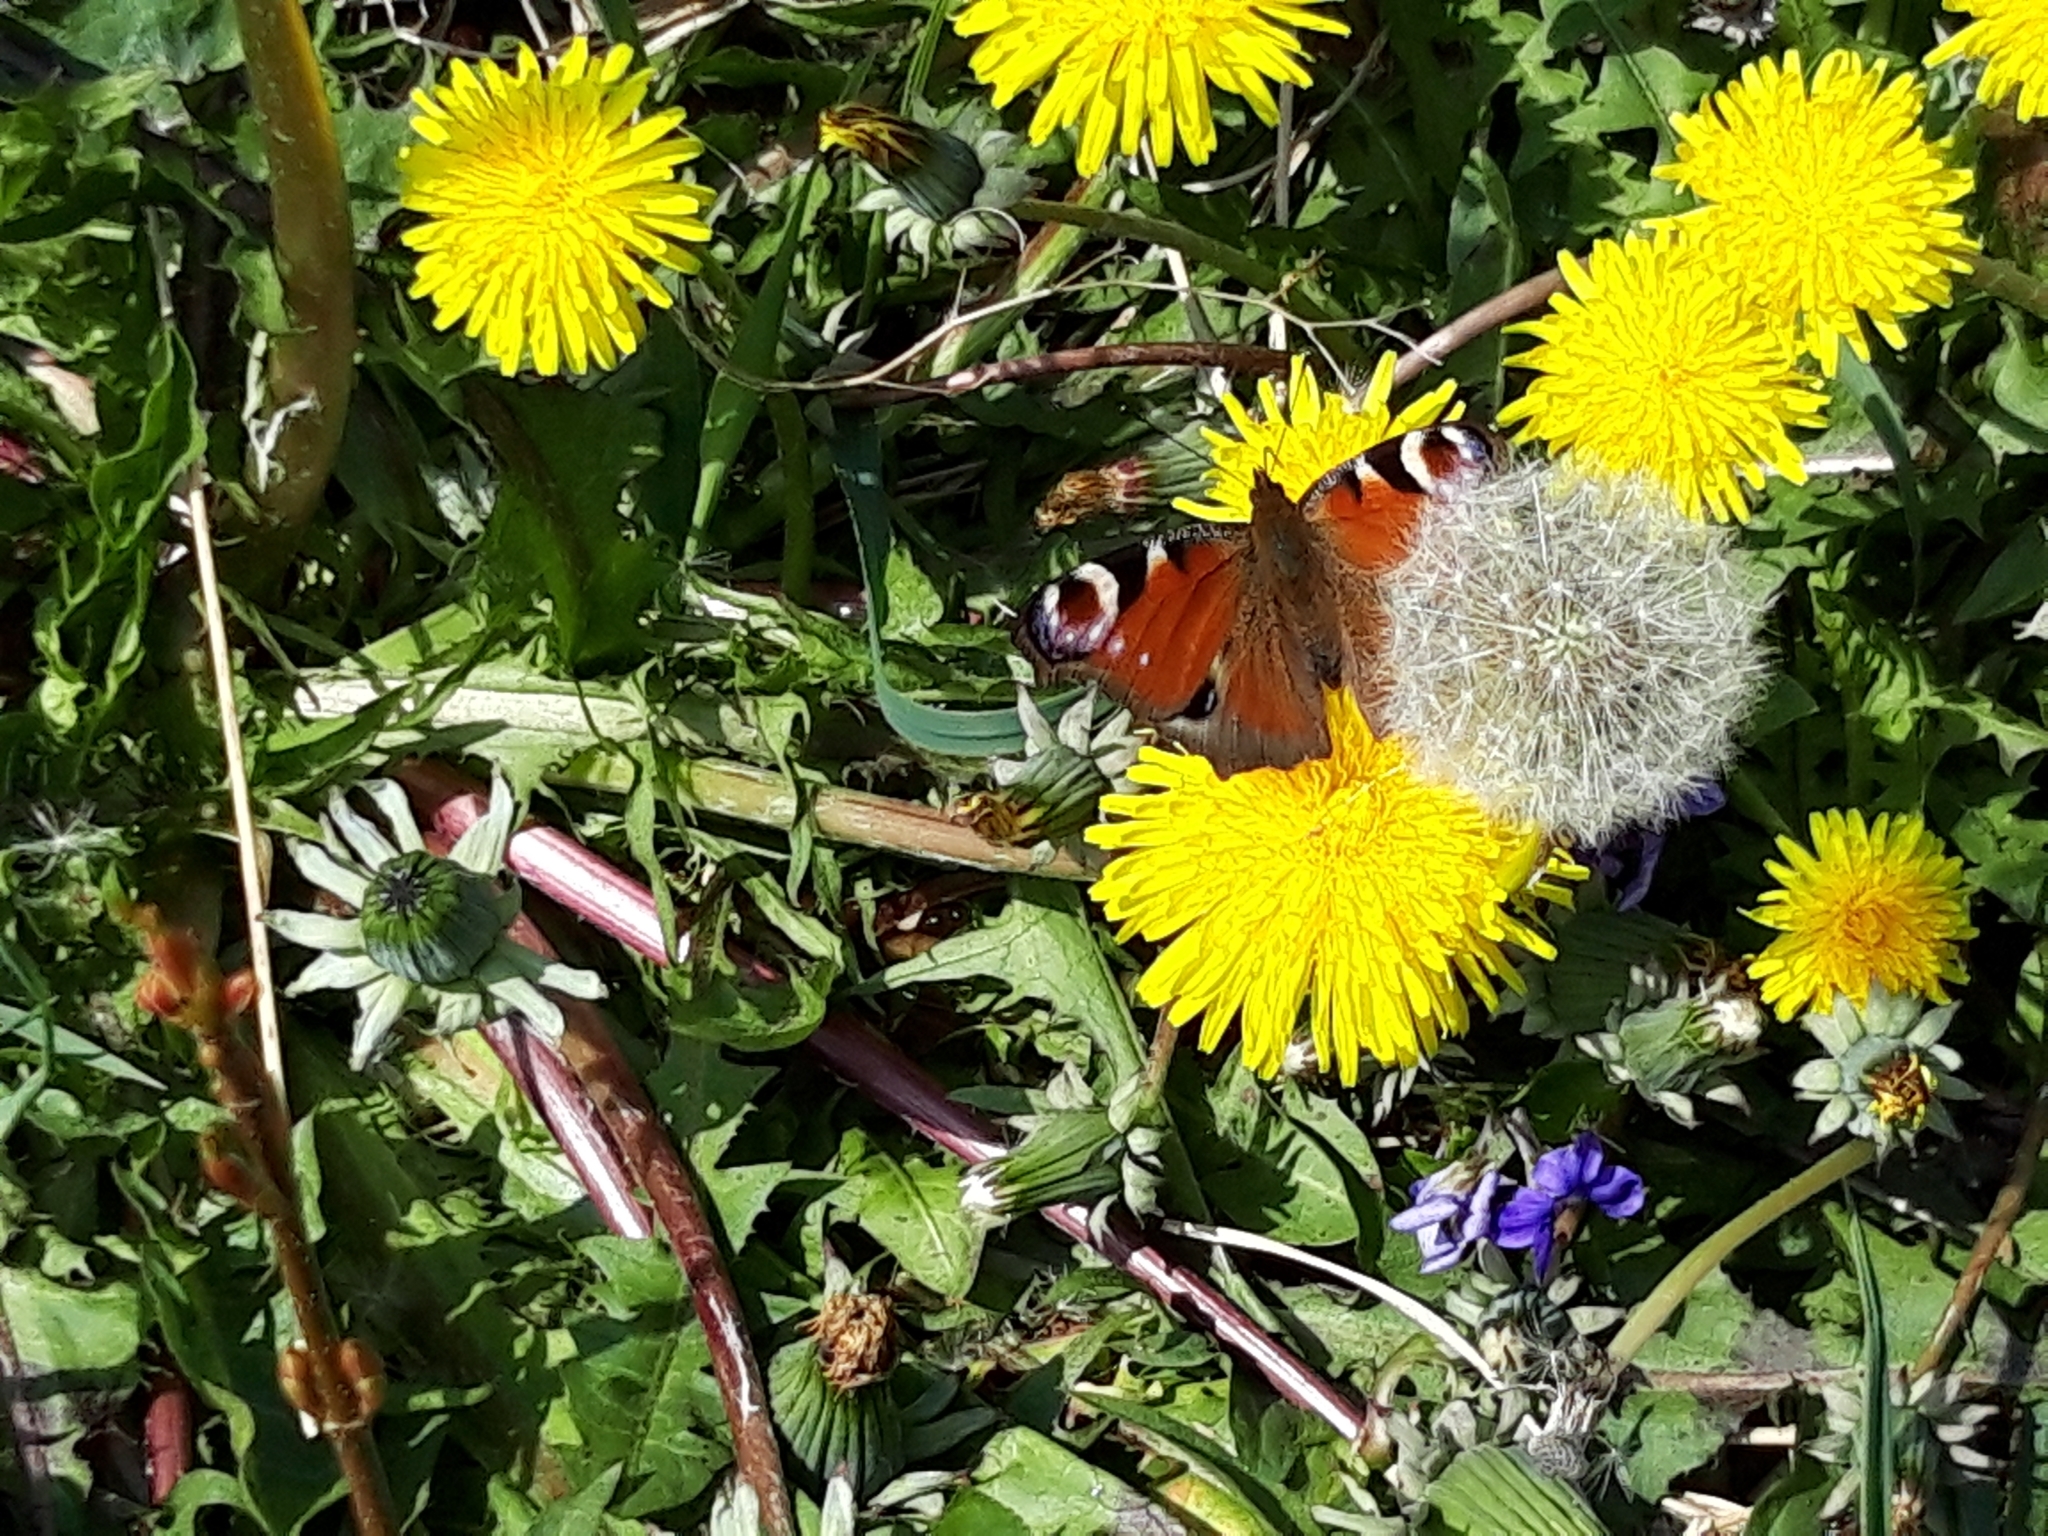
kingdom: Animalia
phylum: Arthropoda
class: Insecta
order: Lepidoptera
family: Nymphalidae
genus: Aglais
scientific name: Aglais io
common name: Peacock
